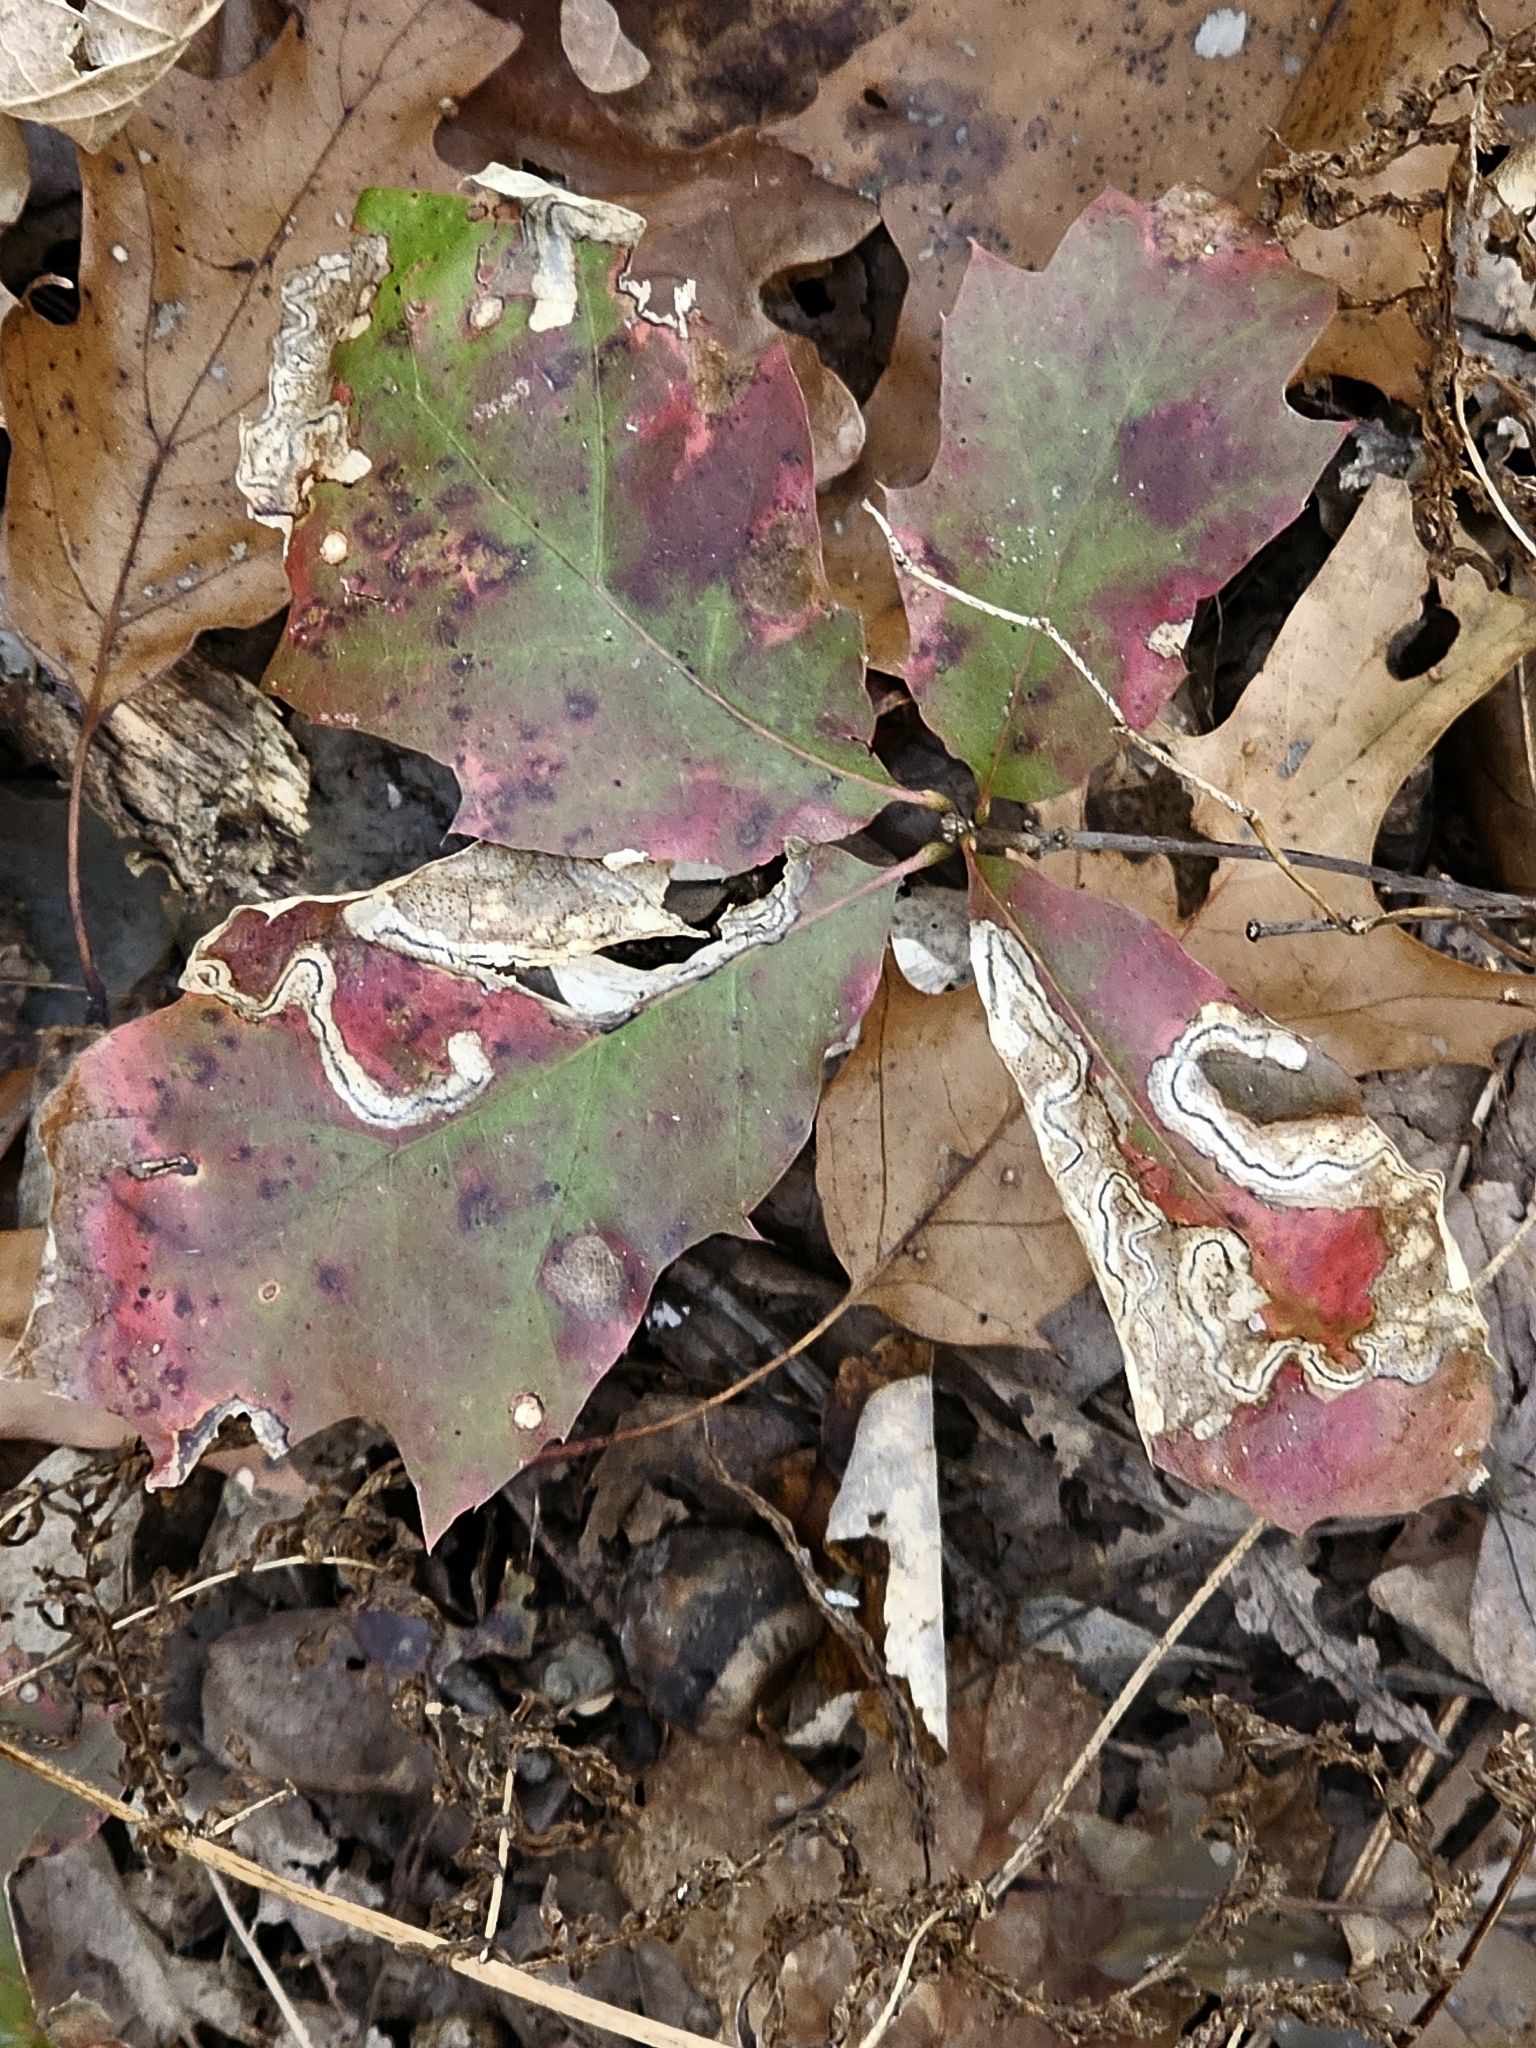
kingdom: Animalia
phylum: Arthropoda
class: Insecta
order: Lepidoptera
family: Nepticulidae
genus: Stigmella
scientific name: Stigmella quercipulchella
